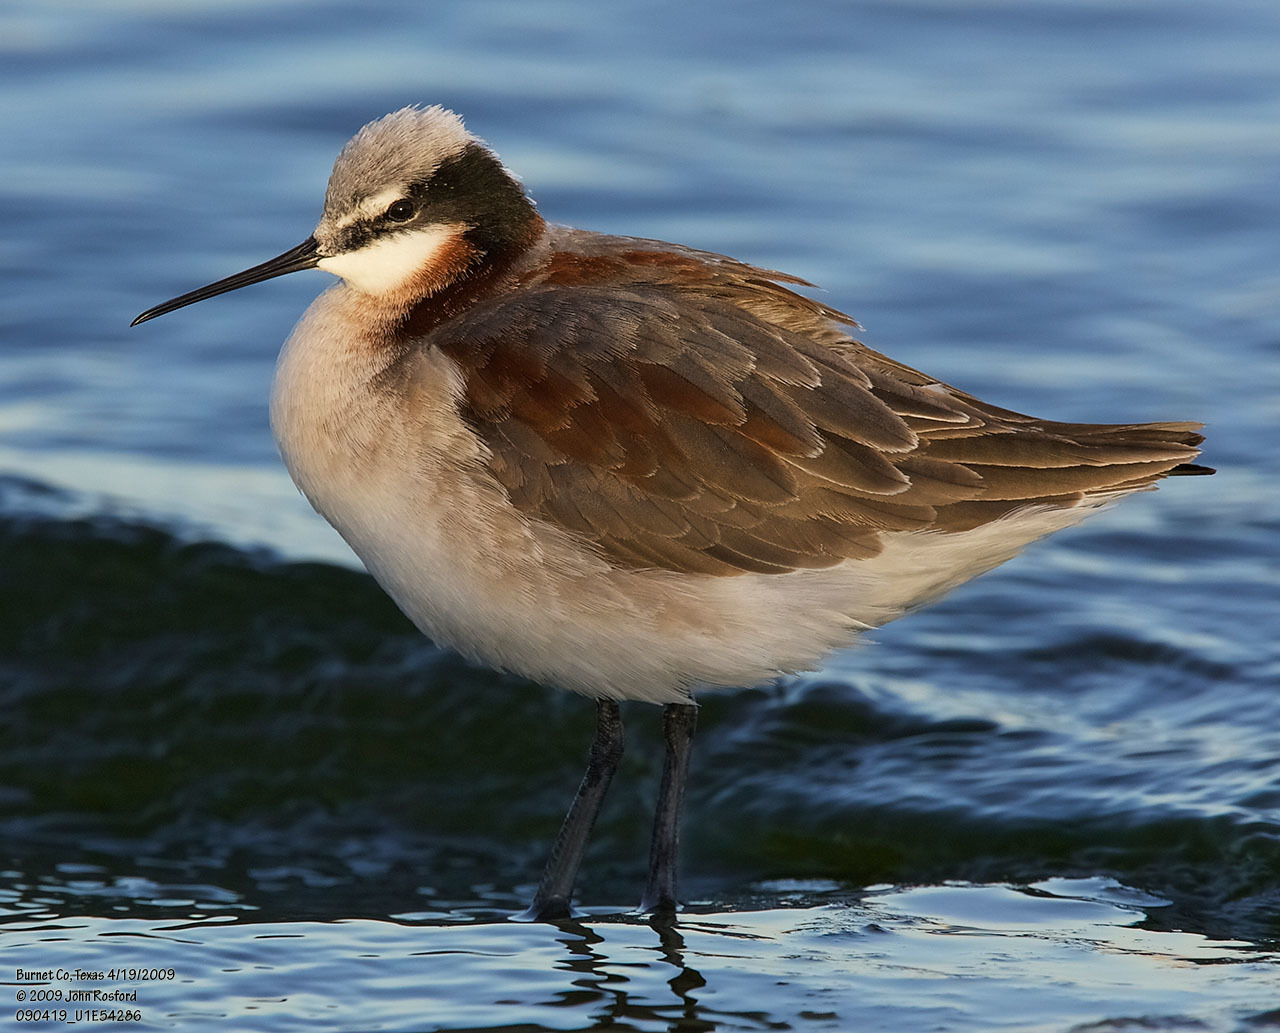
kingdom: Animalia
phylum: Chordata
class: Aves
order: Charadriiformes
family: Scolopacidae
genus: Phalaropus
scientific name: Phalaropus tricolor
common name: Wilson's phalarope
